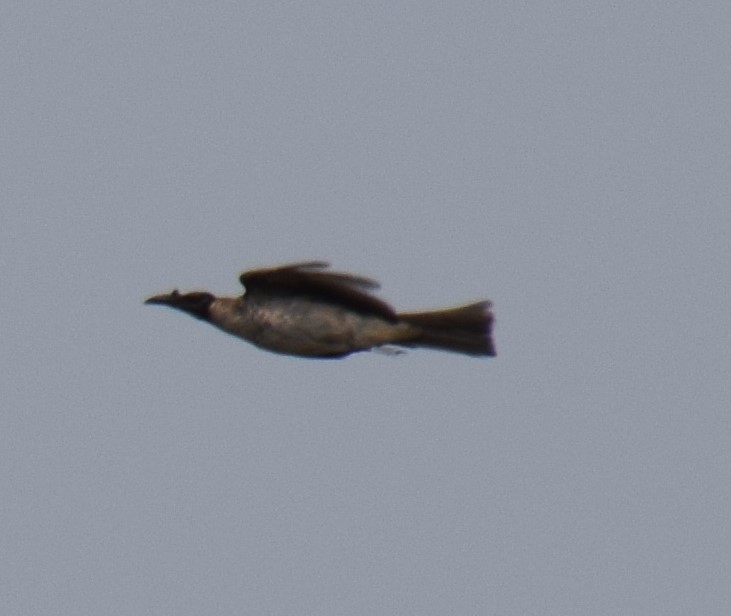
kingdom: Animalia
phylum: Chordata
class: Aves
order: Passeriformes
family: Meliphagidae
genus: Philemon
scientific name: Philemon corniculatus
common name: Noisy friarbird
